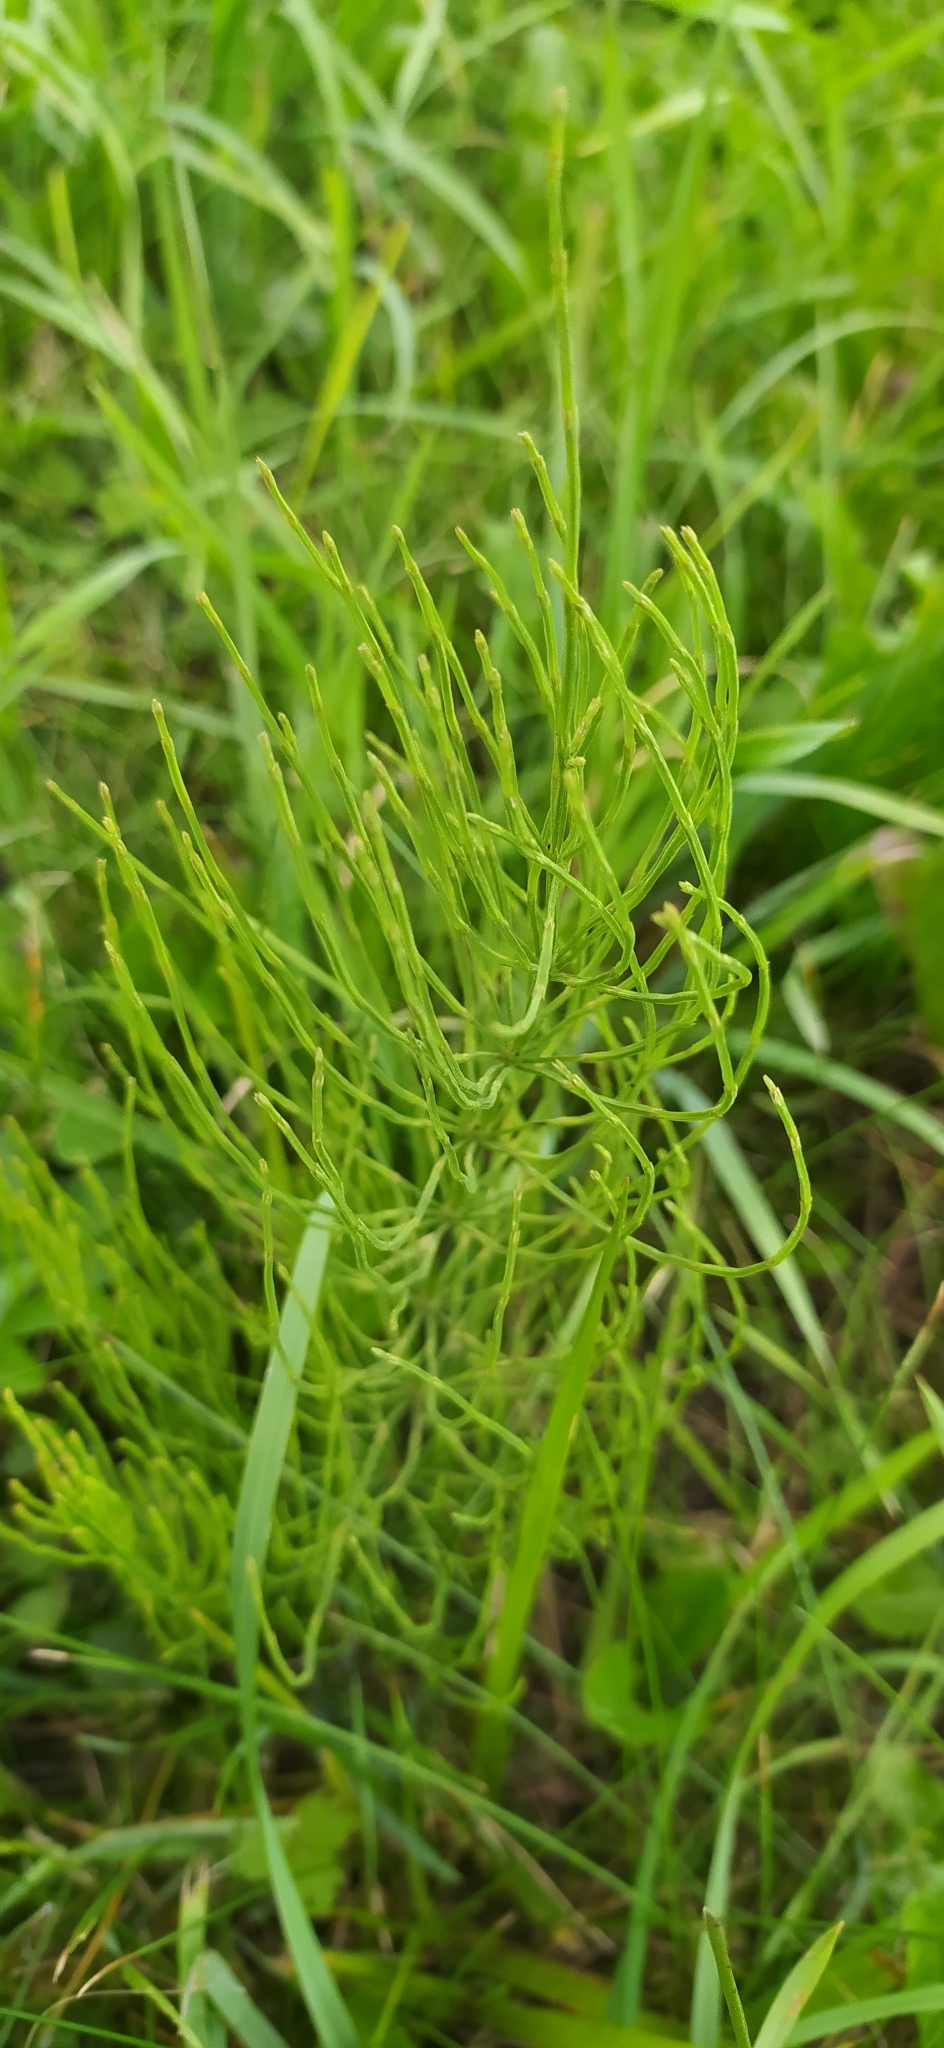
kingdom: Plantae
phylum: Tracheophyta
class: Polypodiopsida
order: Equisetales
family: Equisetaceae
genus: Equisetum
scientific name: Equisetum arvense
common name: Field horsetail
